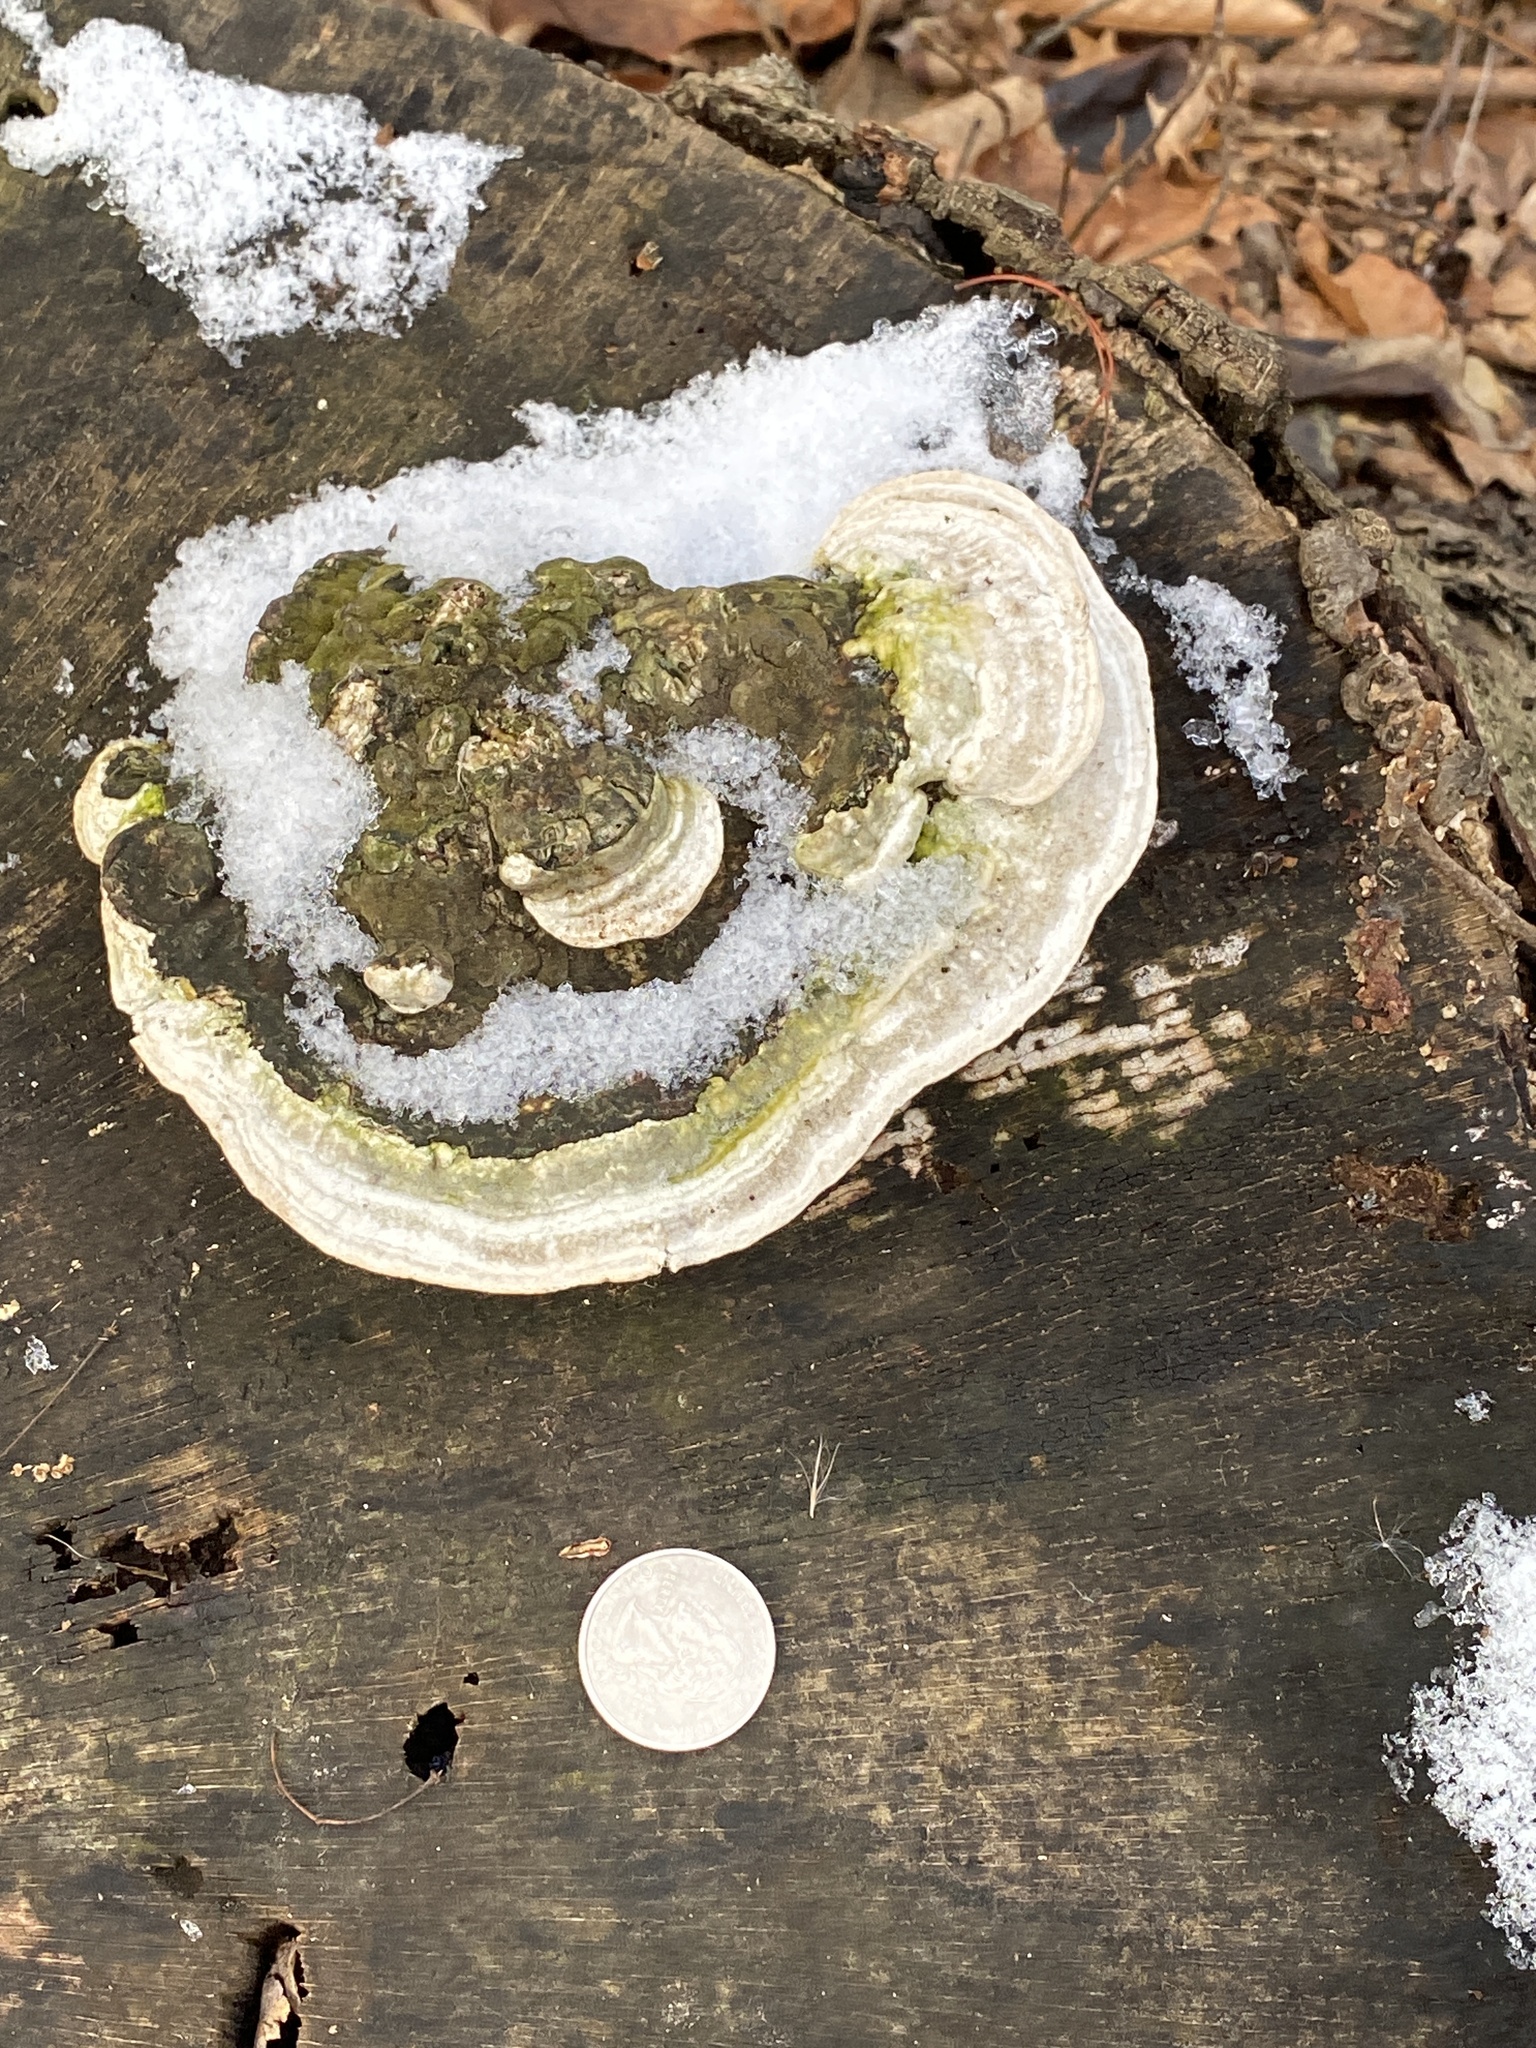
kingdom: Fungi
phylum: Basidiomycota
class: Agaricomycetes
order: Polyporales
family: Polyporaceae
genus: Trametes
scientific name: Trametes gibbosa
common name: Lumpy bracket
